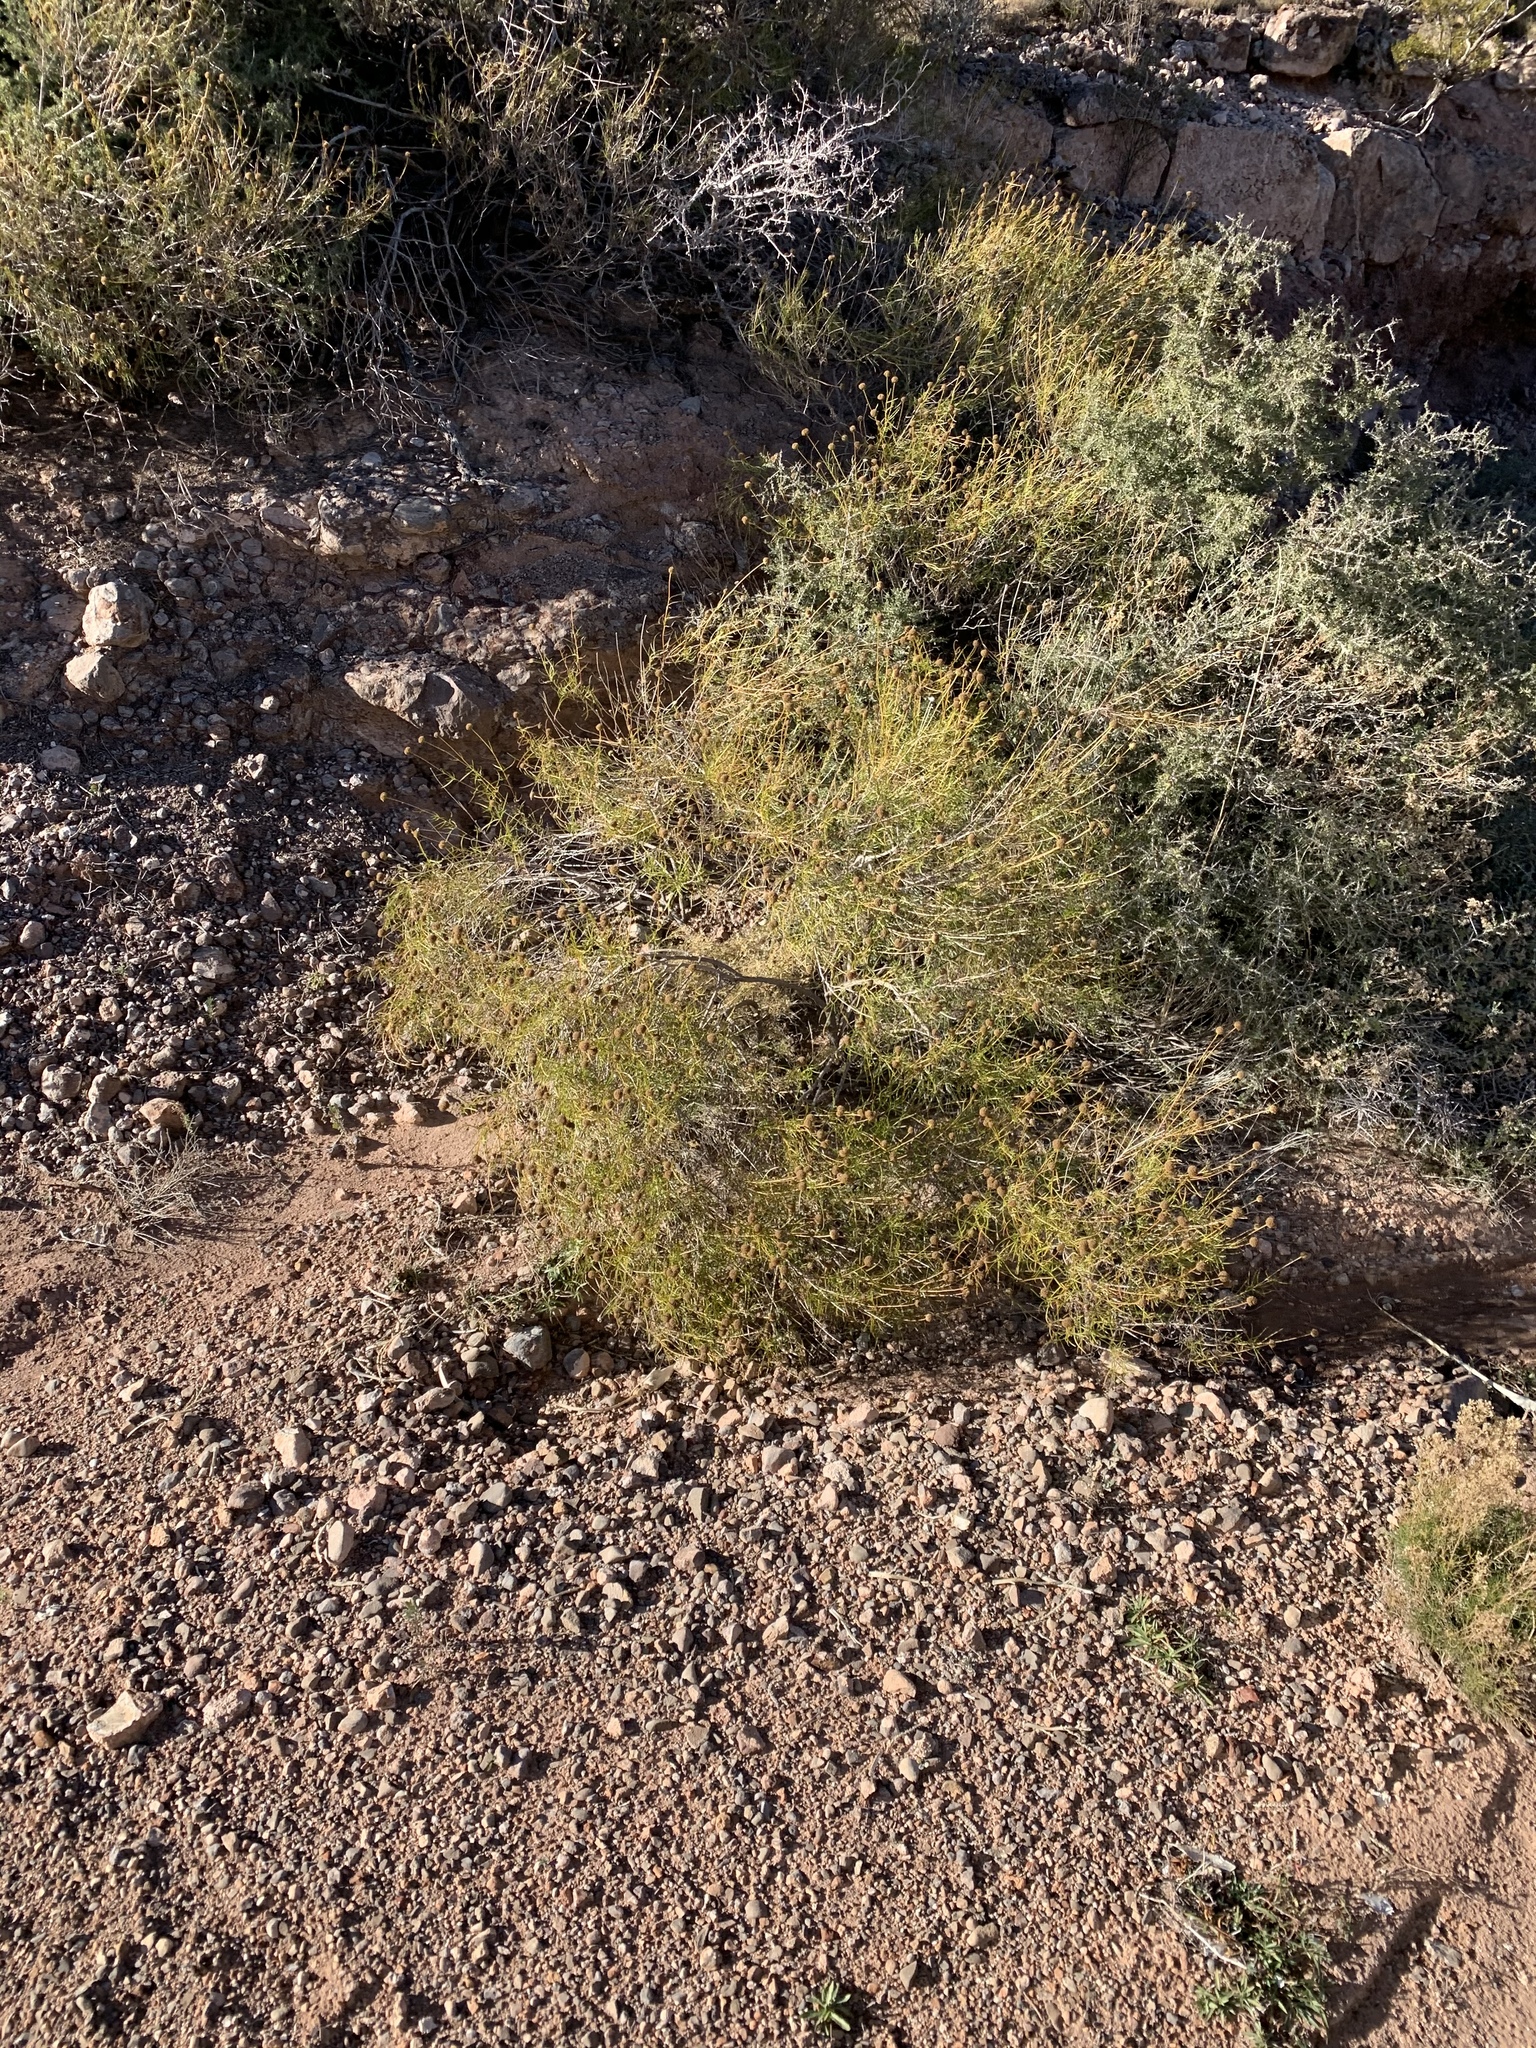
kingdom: Plantae
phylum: Tracheophyta
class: Magnoliopsida
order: Asterales
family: Asteraceae
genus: Sidneya
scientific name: Sidneya tenuifolia
